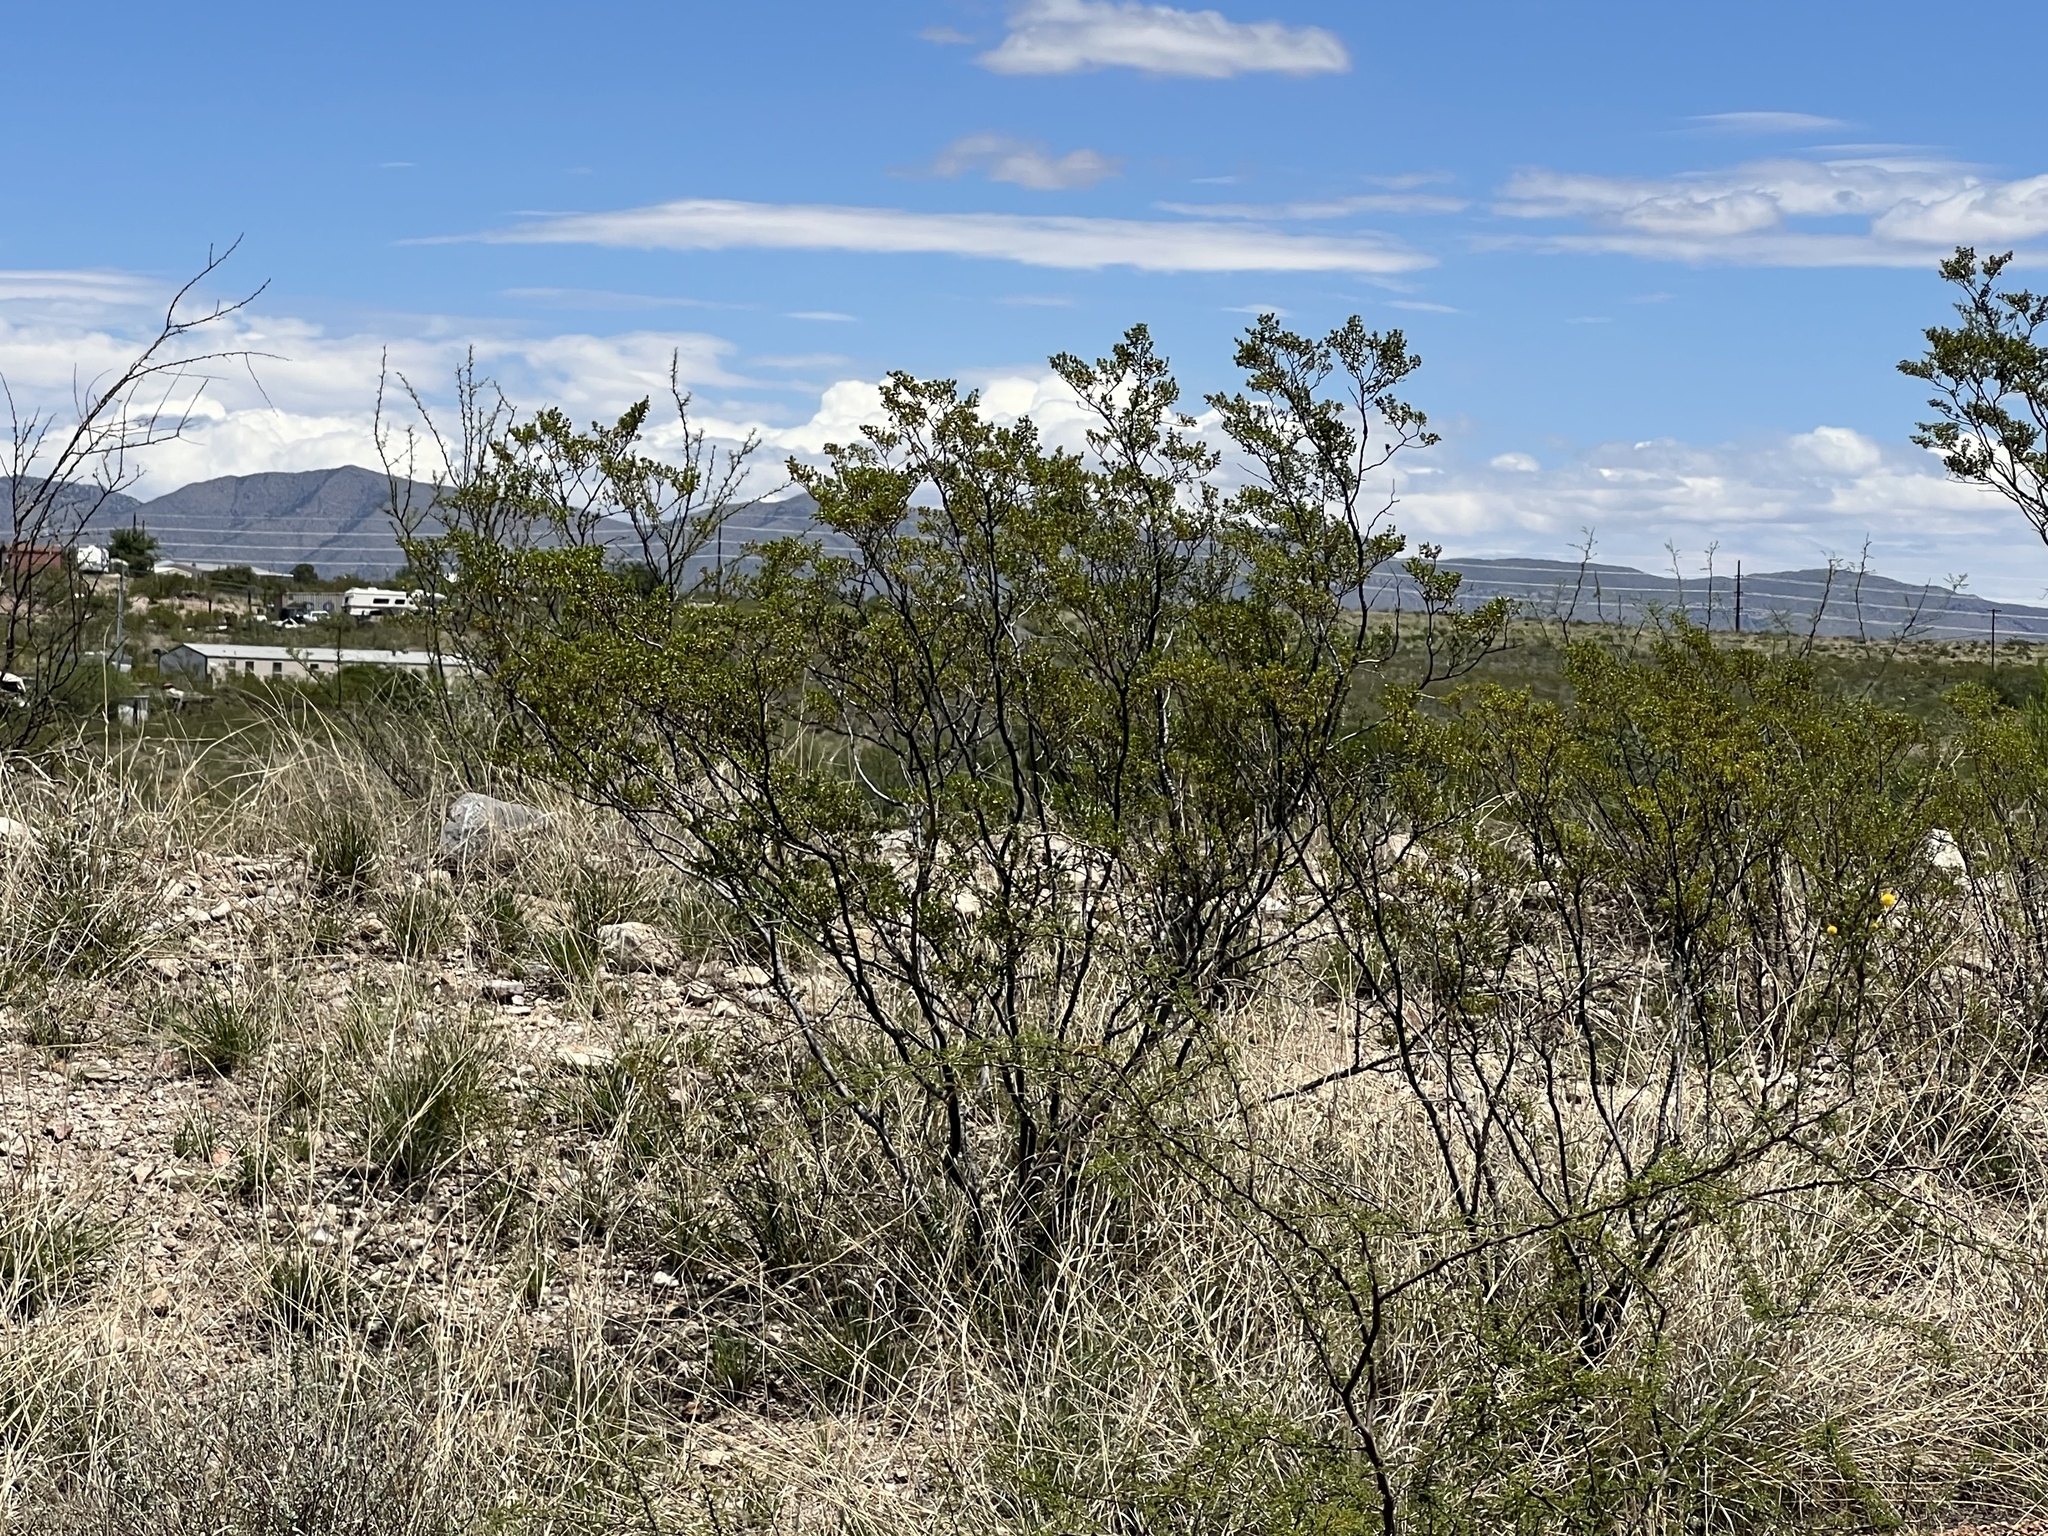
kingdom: Plantae
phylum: Tracheophyta
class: Magnoliopsida
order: Zygophyllales
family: Zygophyllaceae
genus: Larrea
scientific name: Larrea tridentata
